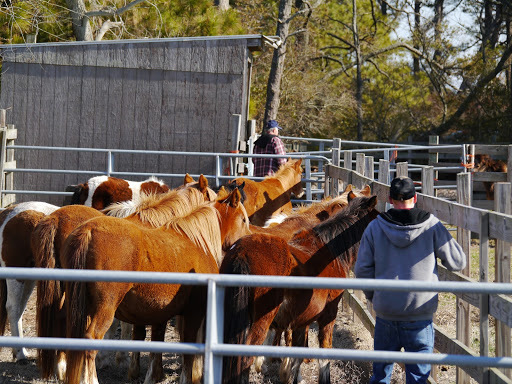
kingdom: Animalia
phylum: Chordata
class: Mammalia
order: Perissodactyla
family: Equidae
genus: Equus
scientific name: Equus caballus
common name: Horse
